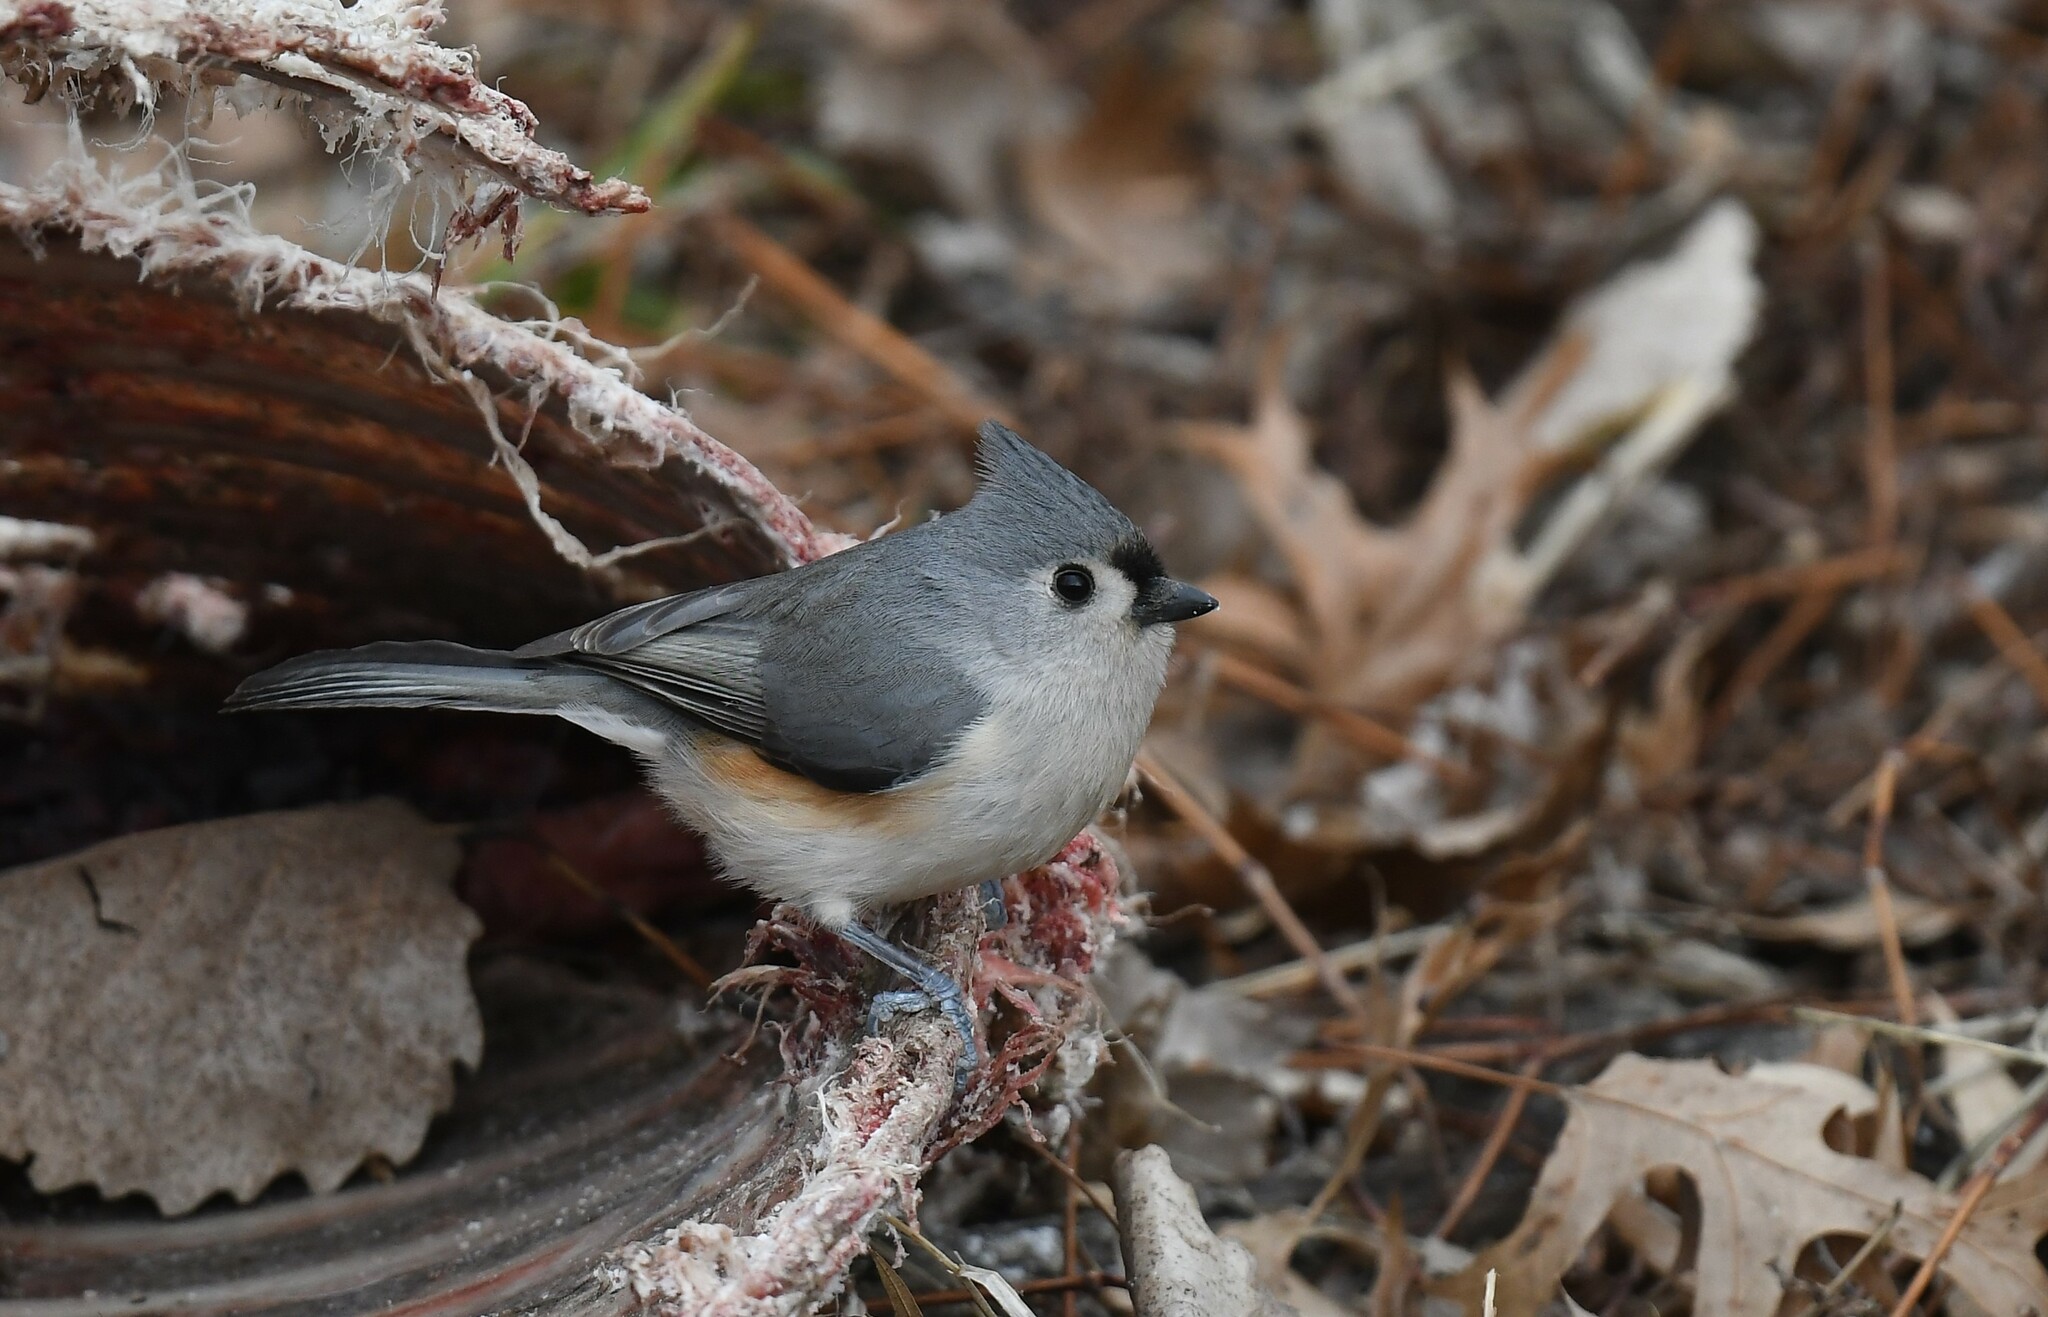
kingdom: Animalia
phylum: Chordata
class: Aves
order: Passeriformes
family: Paridae
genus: Baeolophus
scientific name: Baeolophus bicolor
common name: Tufted titmouse
